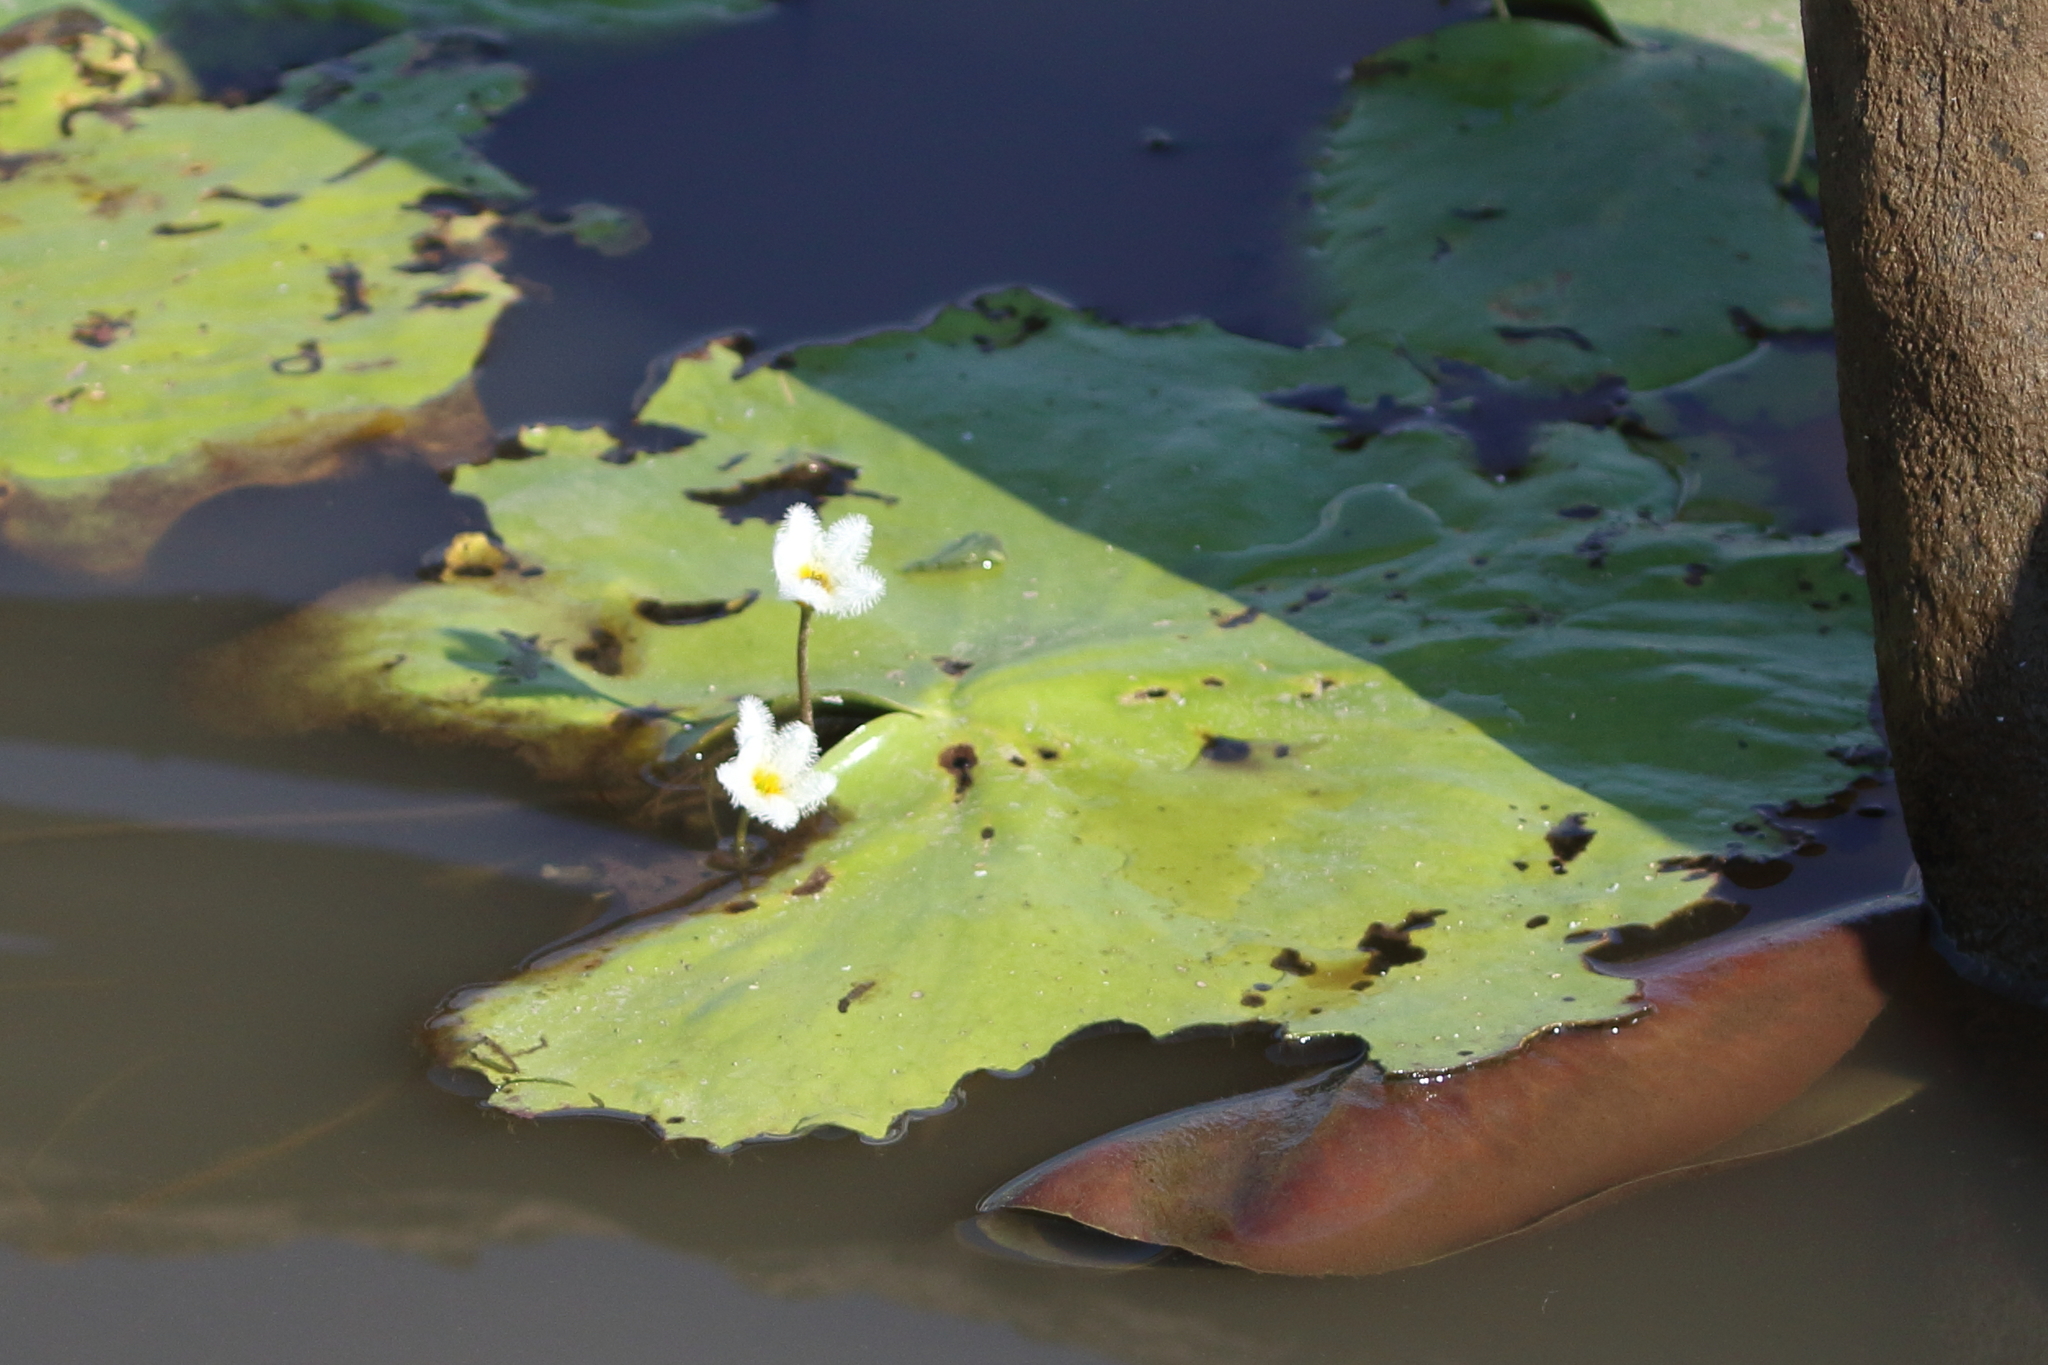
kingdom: Plantae
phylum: Tracheophyta
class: Magnoliopsida
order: Asterales
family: Menyanthaceae
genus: Nymphoides
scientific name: Nymphoides indica
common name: Water-snowflake
